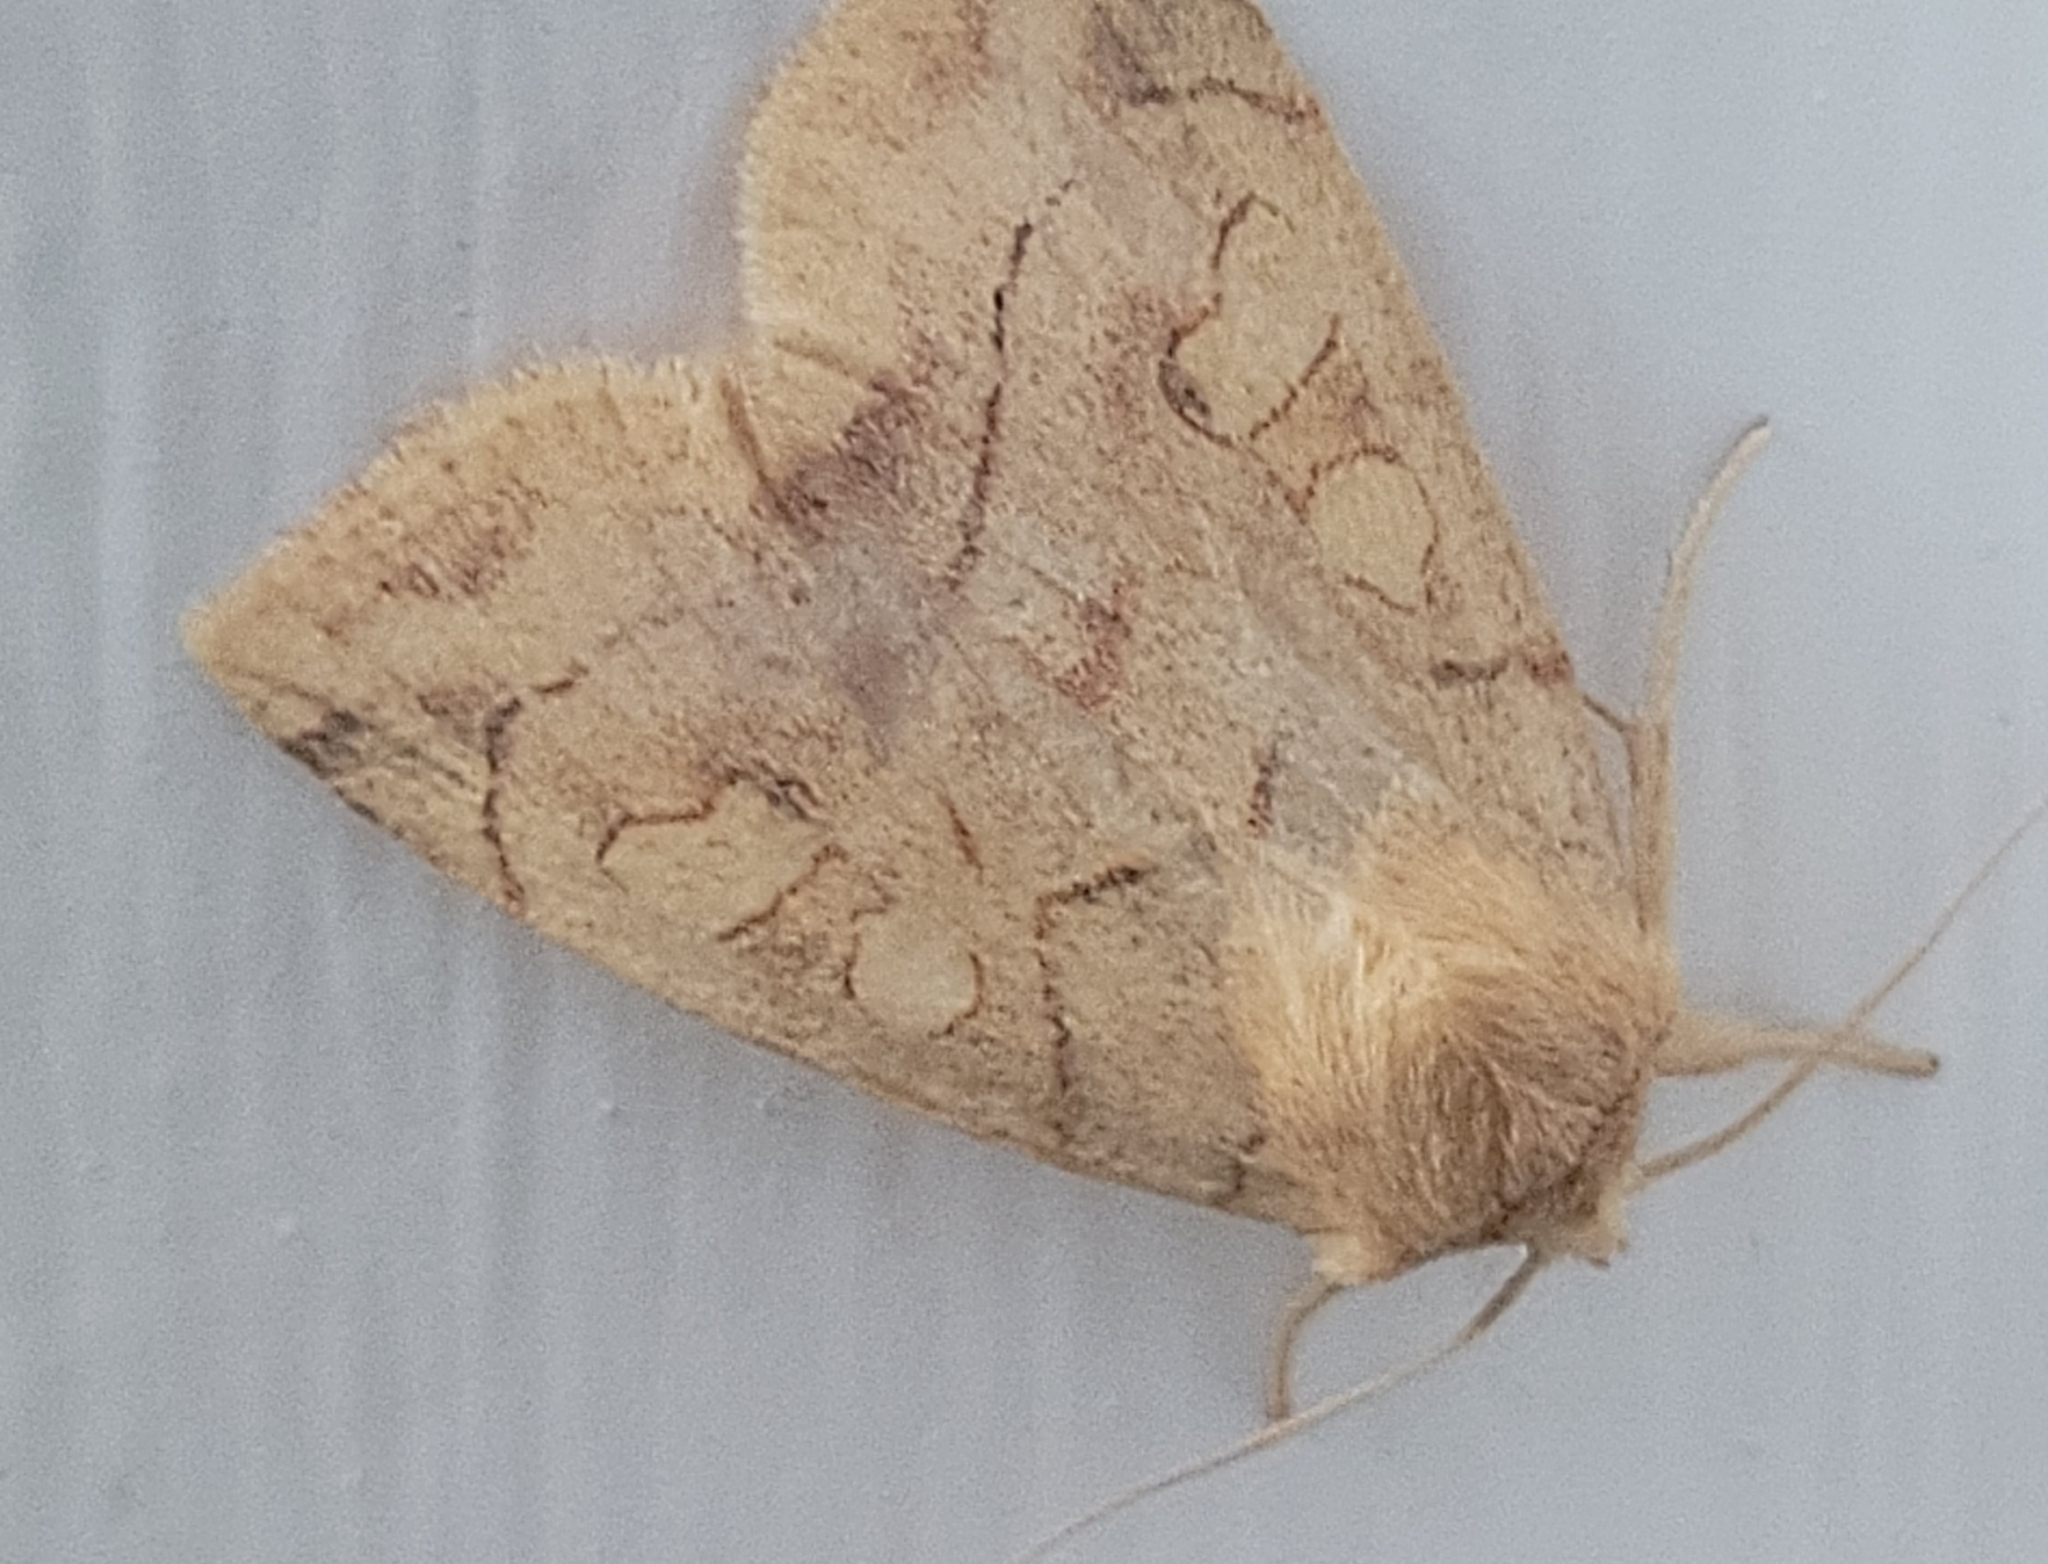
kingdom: Animalia
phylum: Arthropoda
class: Insecta
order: Lepidoptera
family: Noctuidae
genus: Enargia
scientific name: Enargia decolor
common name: Aspen twoleaf tier moth
